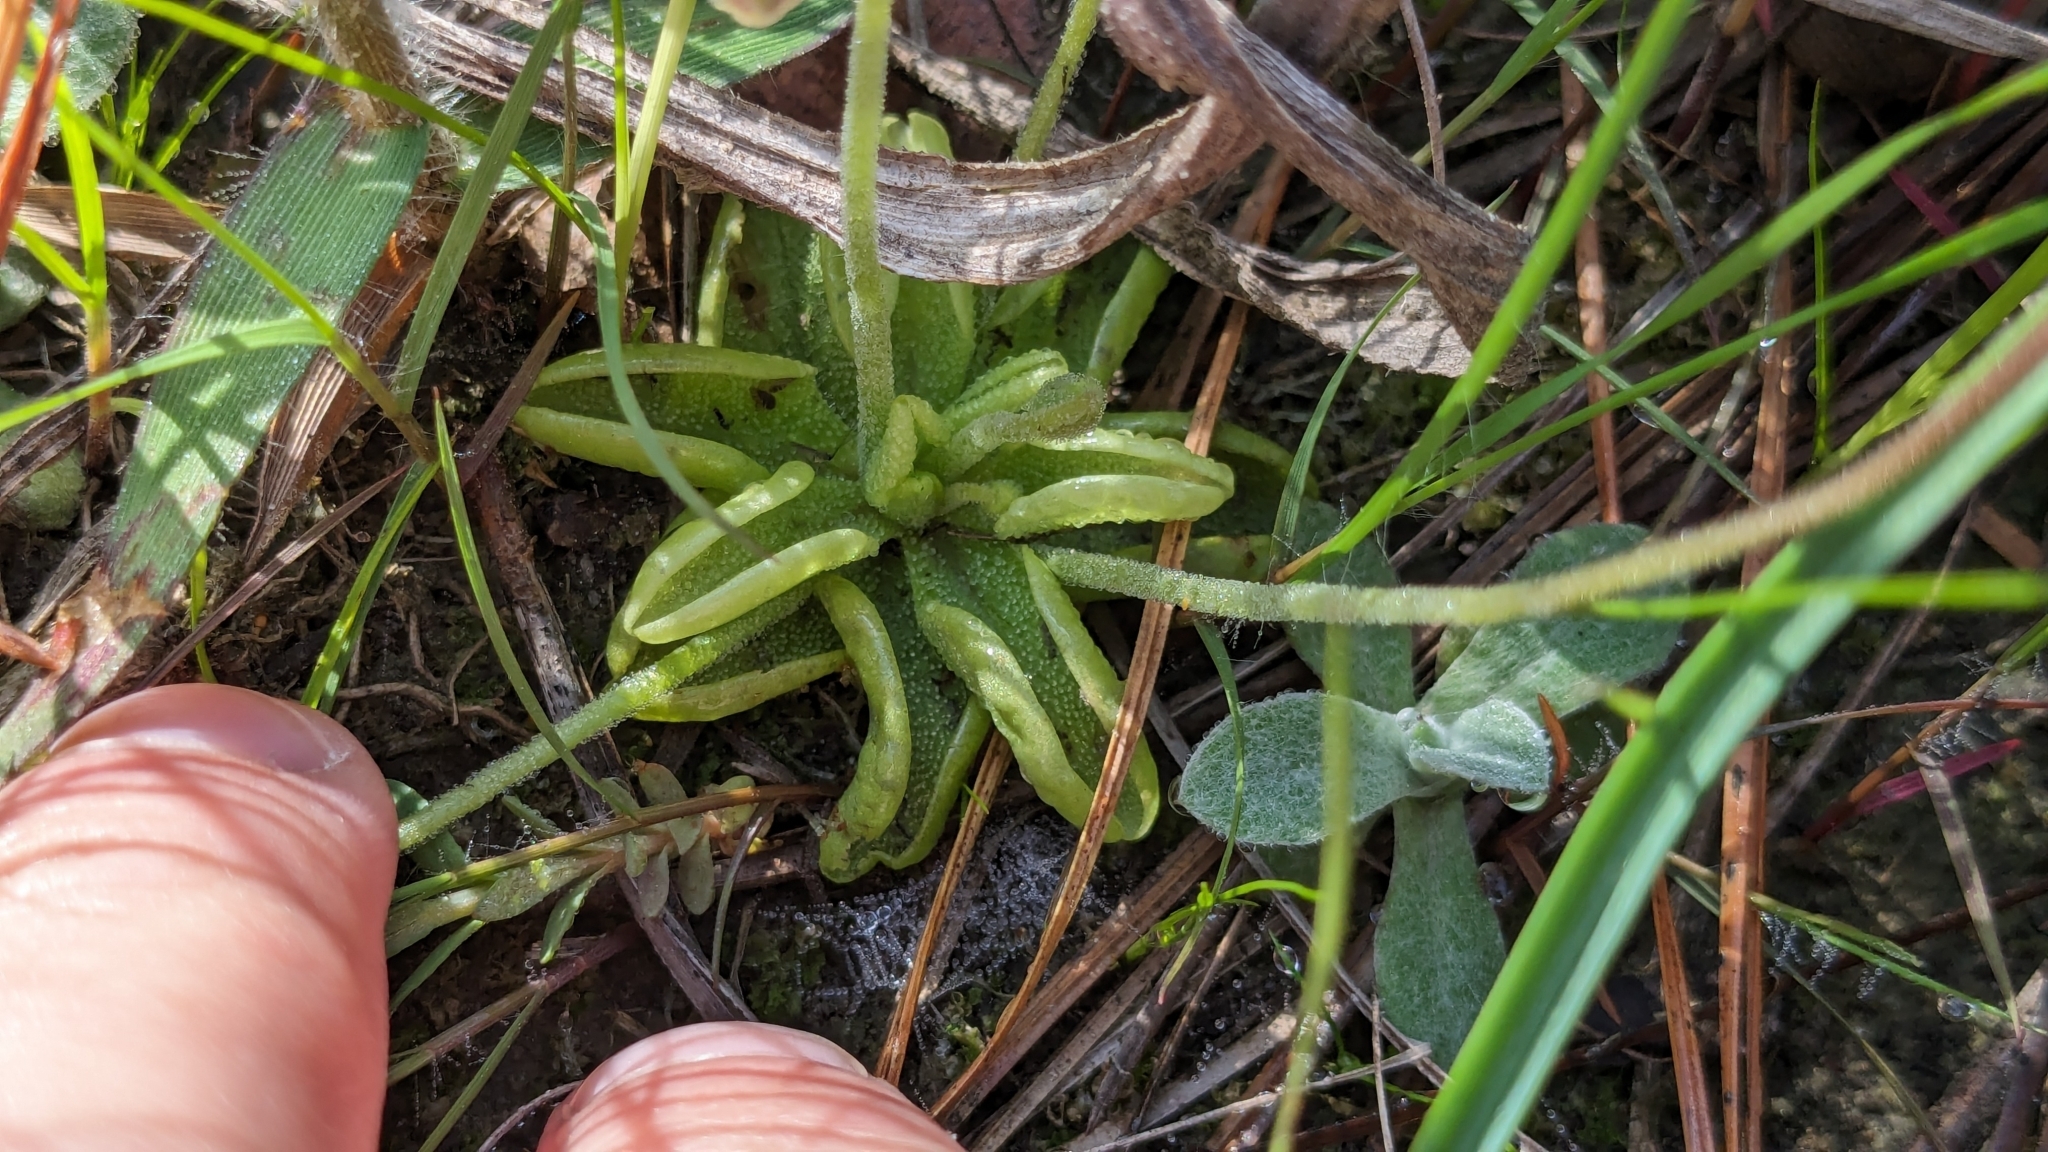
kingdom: Plantae
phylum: Tracheophyta
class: Magnoliopsida
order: Lamiales
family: Lentibulariaceae
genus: Pinguicula
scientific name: Pinguicula pumila
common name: Small butterwort
